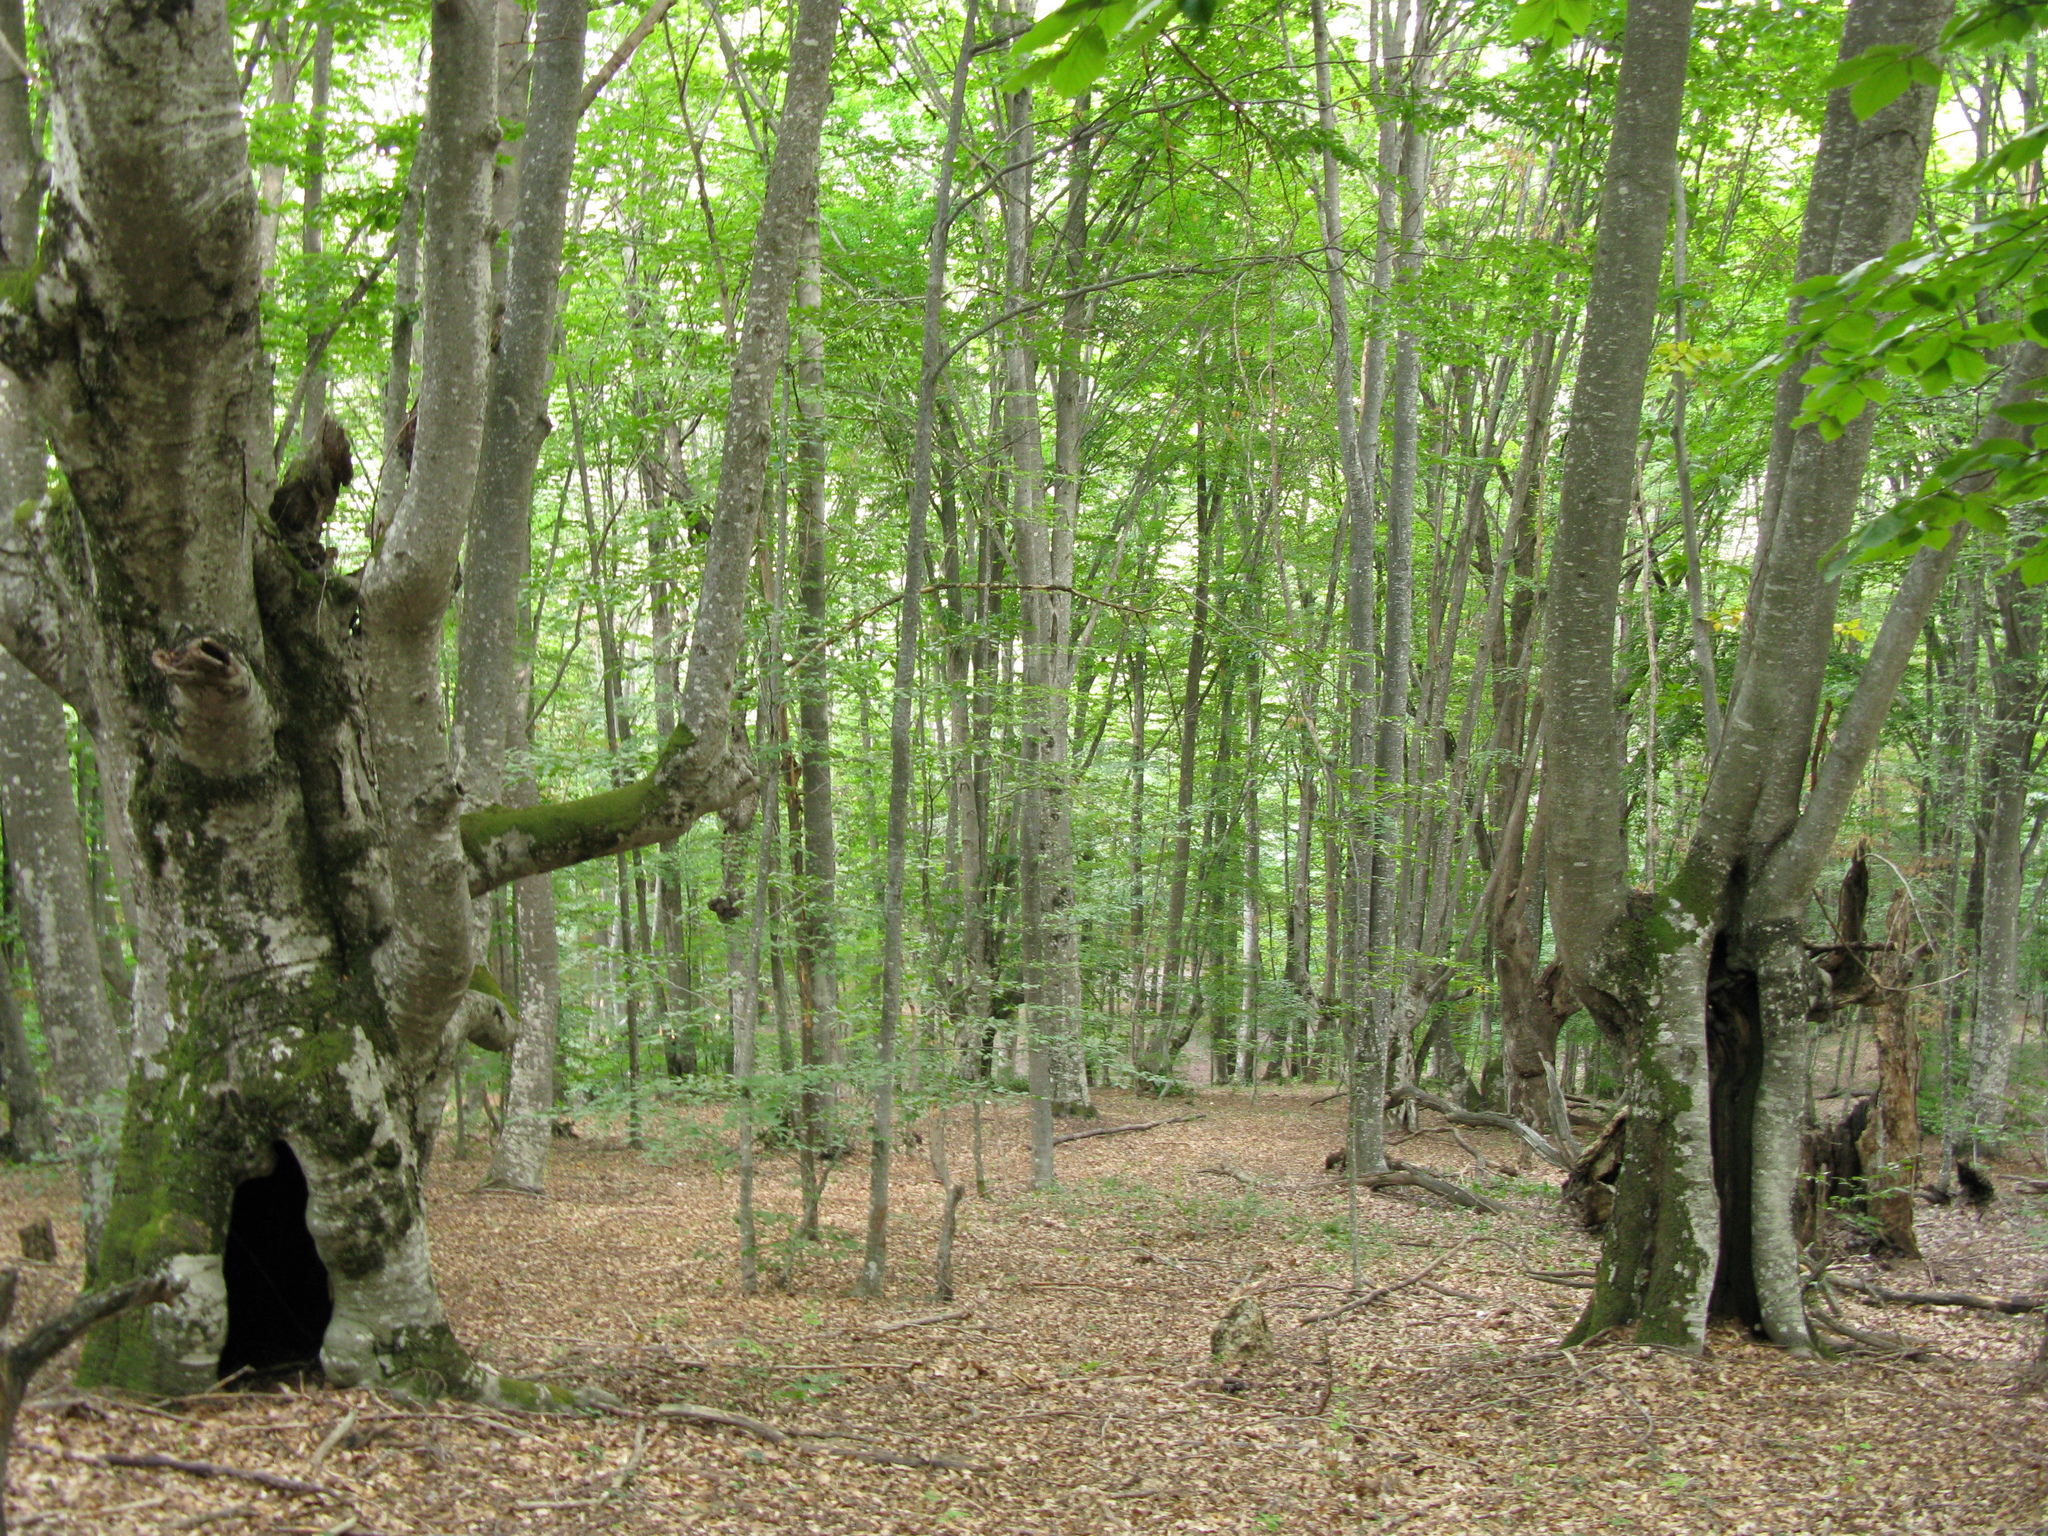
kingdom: Plantae
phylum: Tracheophyta
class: Magnoliopsida
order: Fagales
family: Fagaceae
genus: Fagus
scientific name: Fagus taurica
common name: Crimean beech
